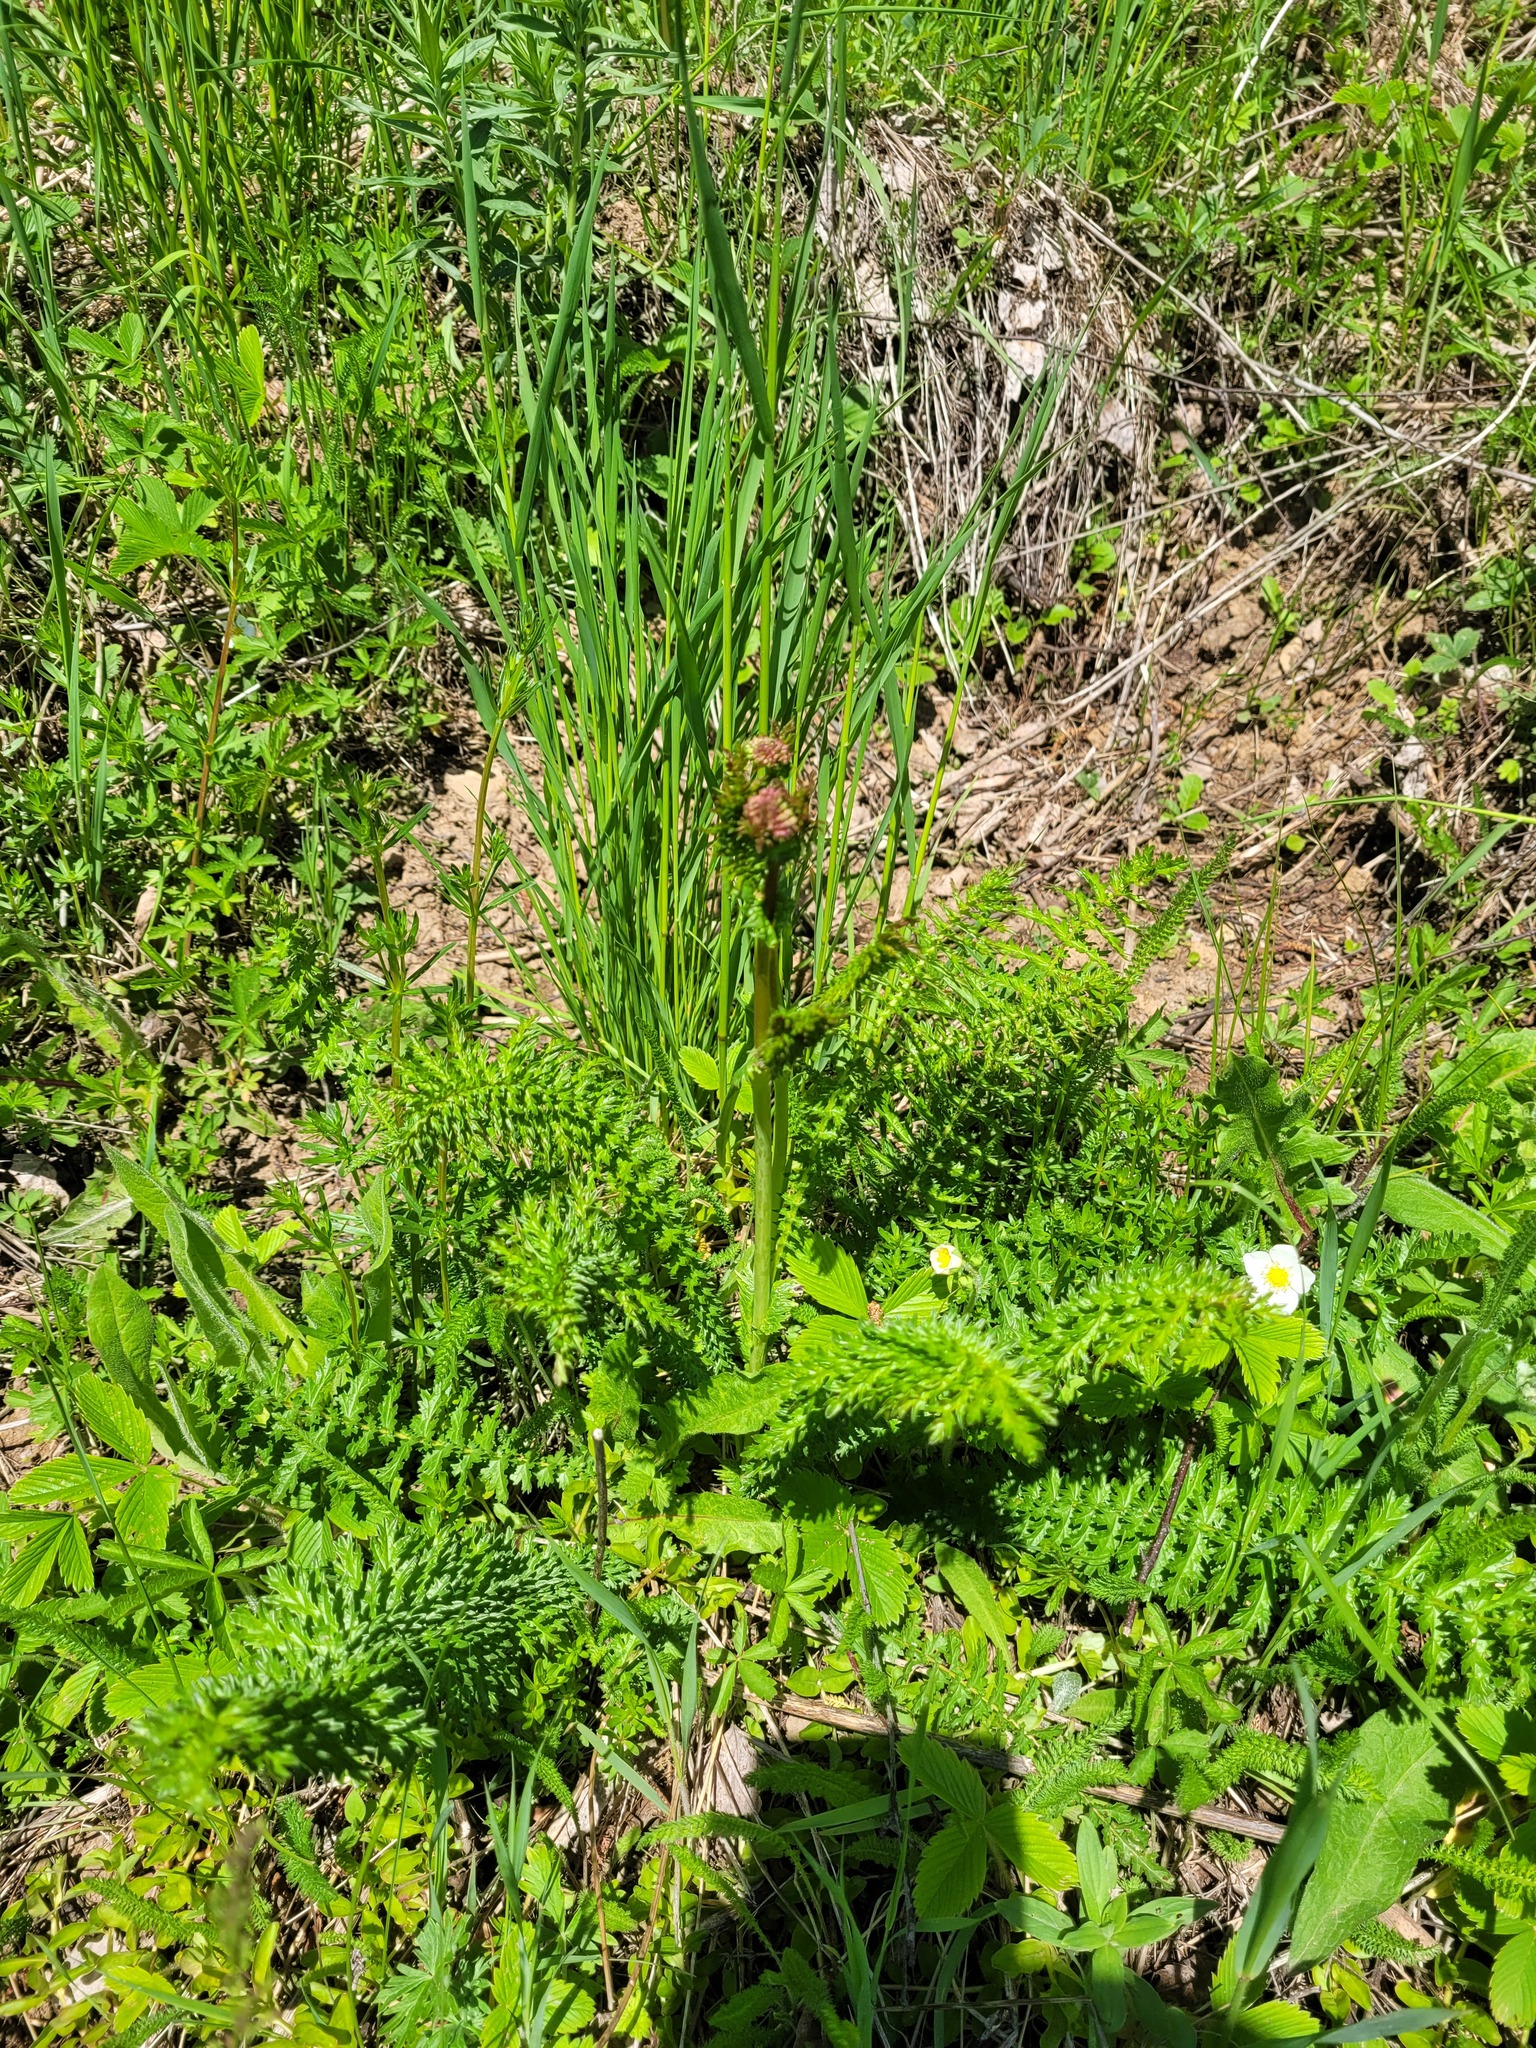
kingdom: Plantae
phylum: Tracheophyta
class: Magnoliopsida
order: Rosales
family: Rosaceae
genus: Filipendula
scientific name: Filipendula vulgaris
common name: Dropwort
